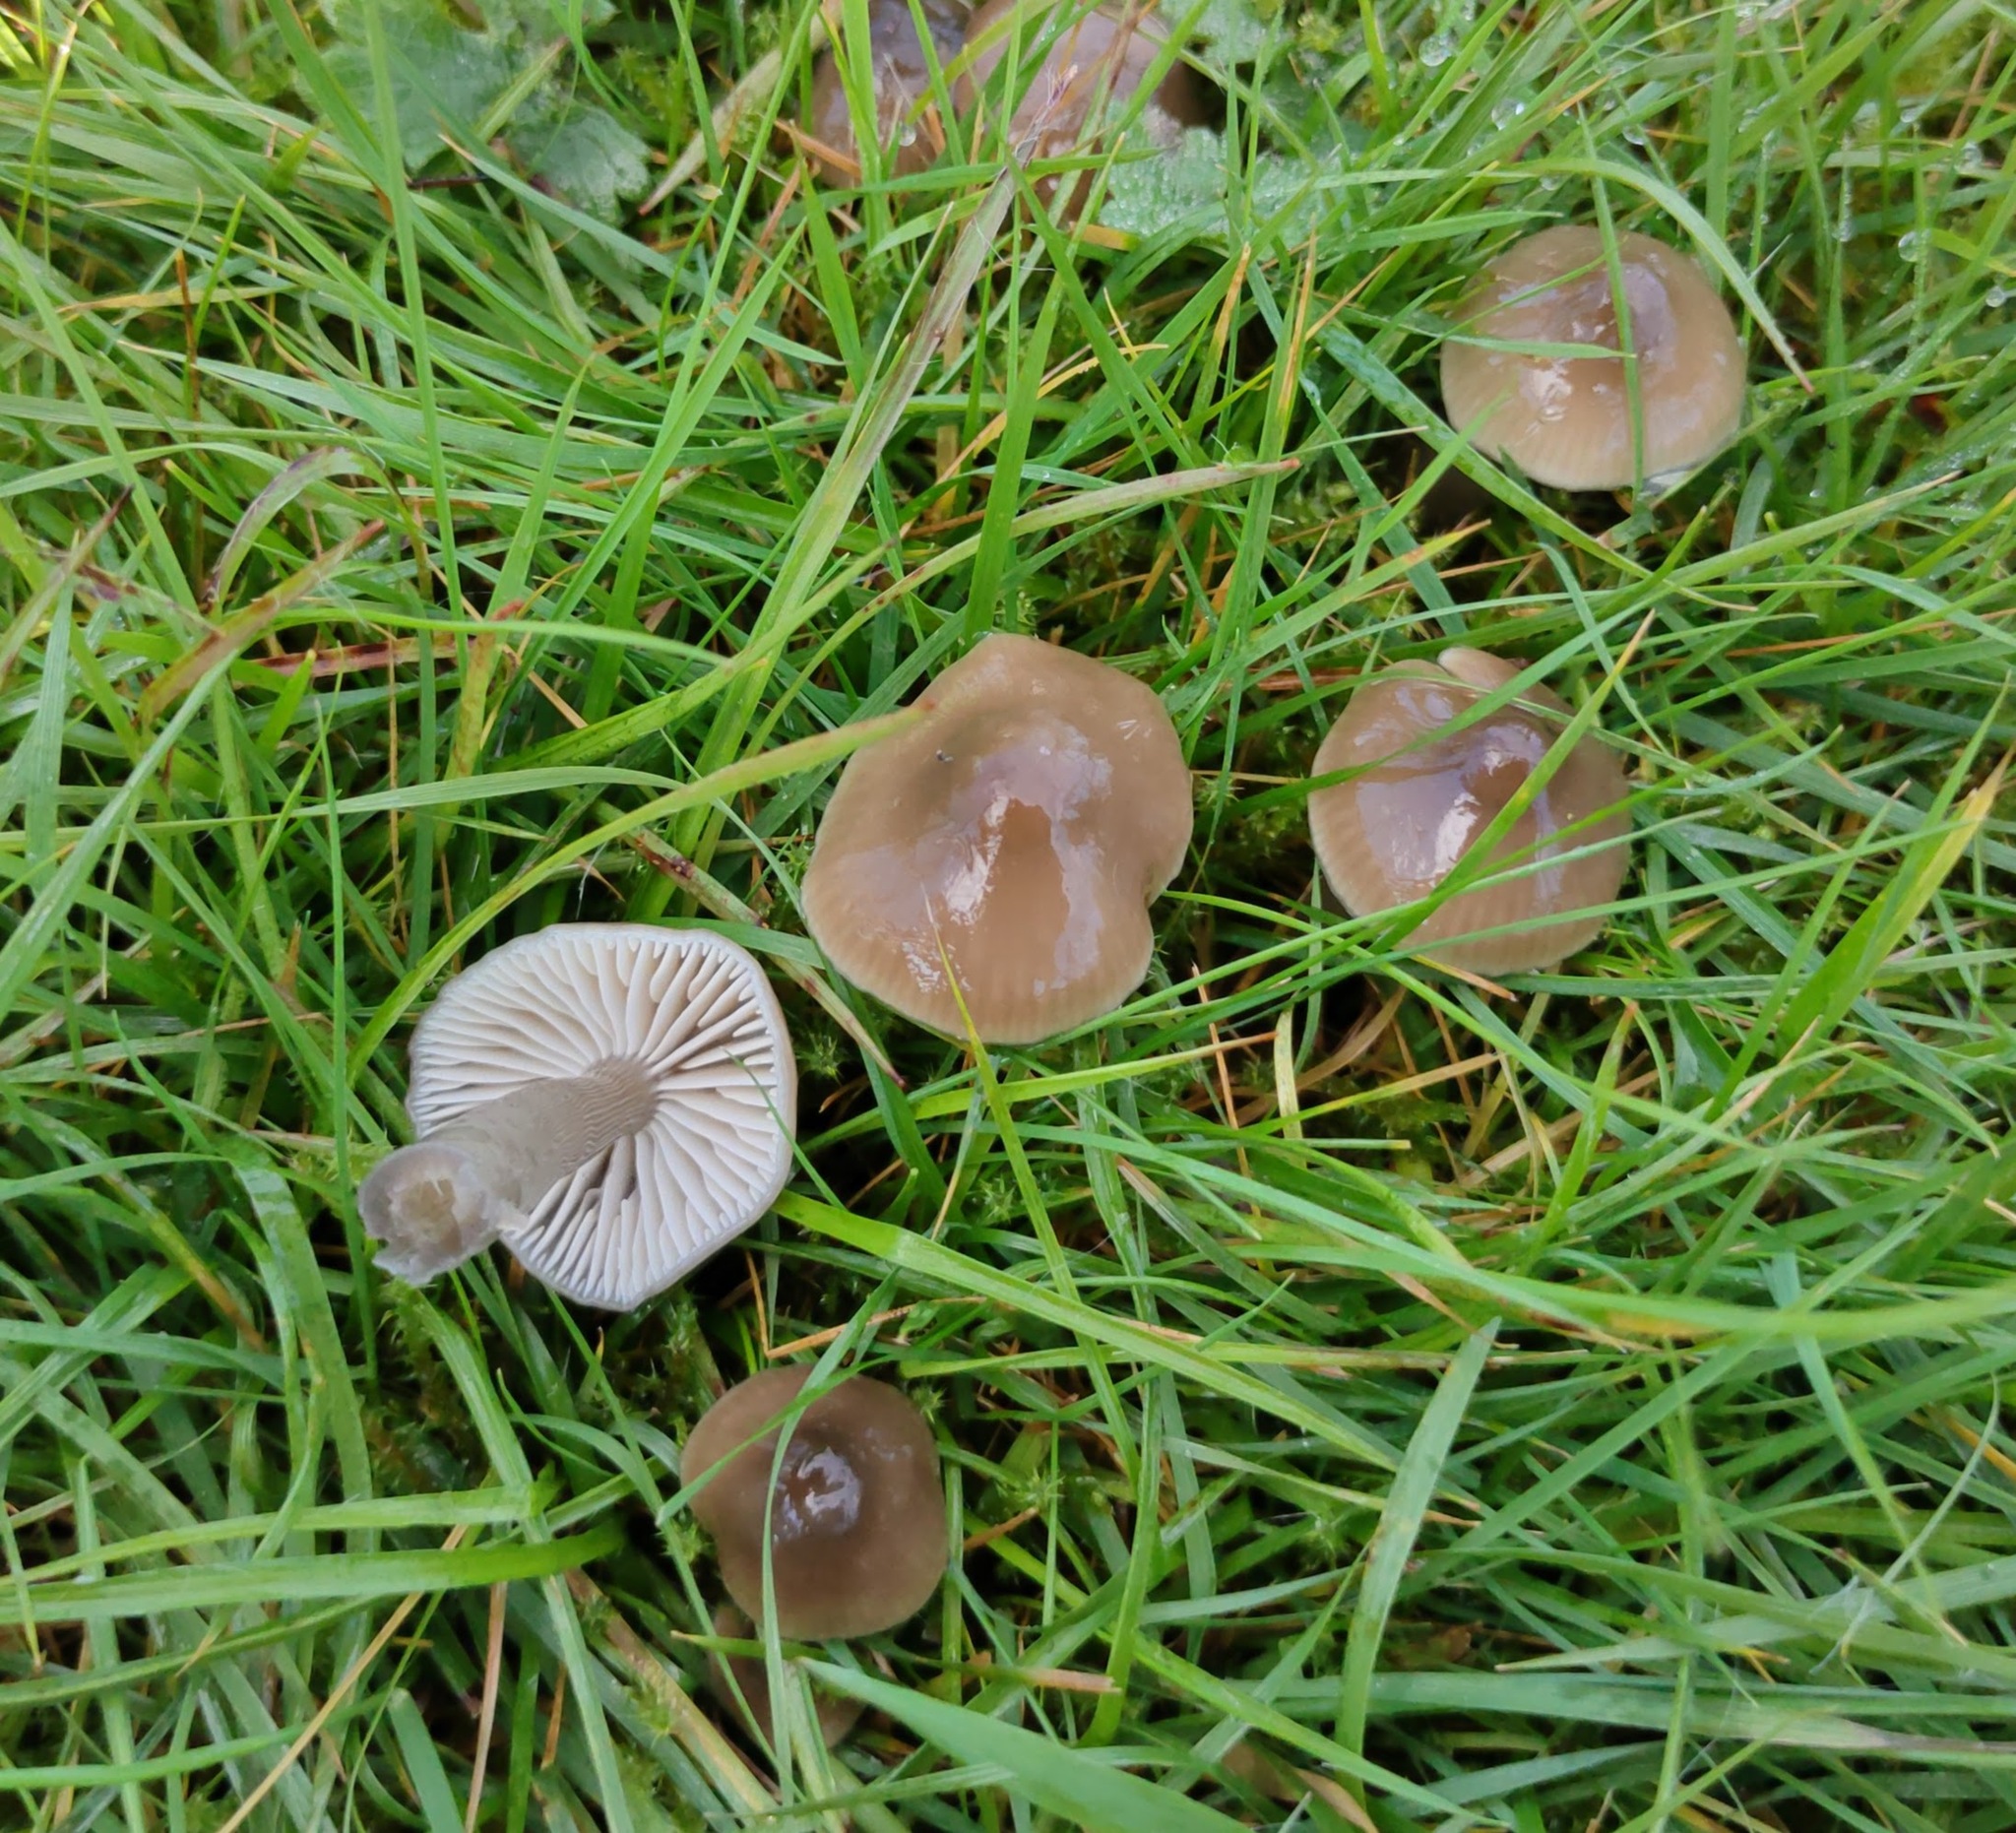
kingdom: Fungi
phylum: Basidiomycota
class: Agaricomycetes
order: Agaricales
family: Hygrophoraceae
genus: Gliophorus
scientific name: Gliophorus irrigatus
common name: Slimy waxcap
